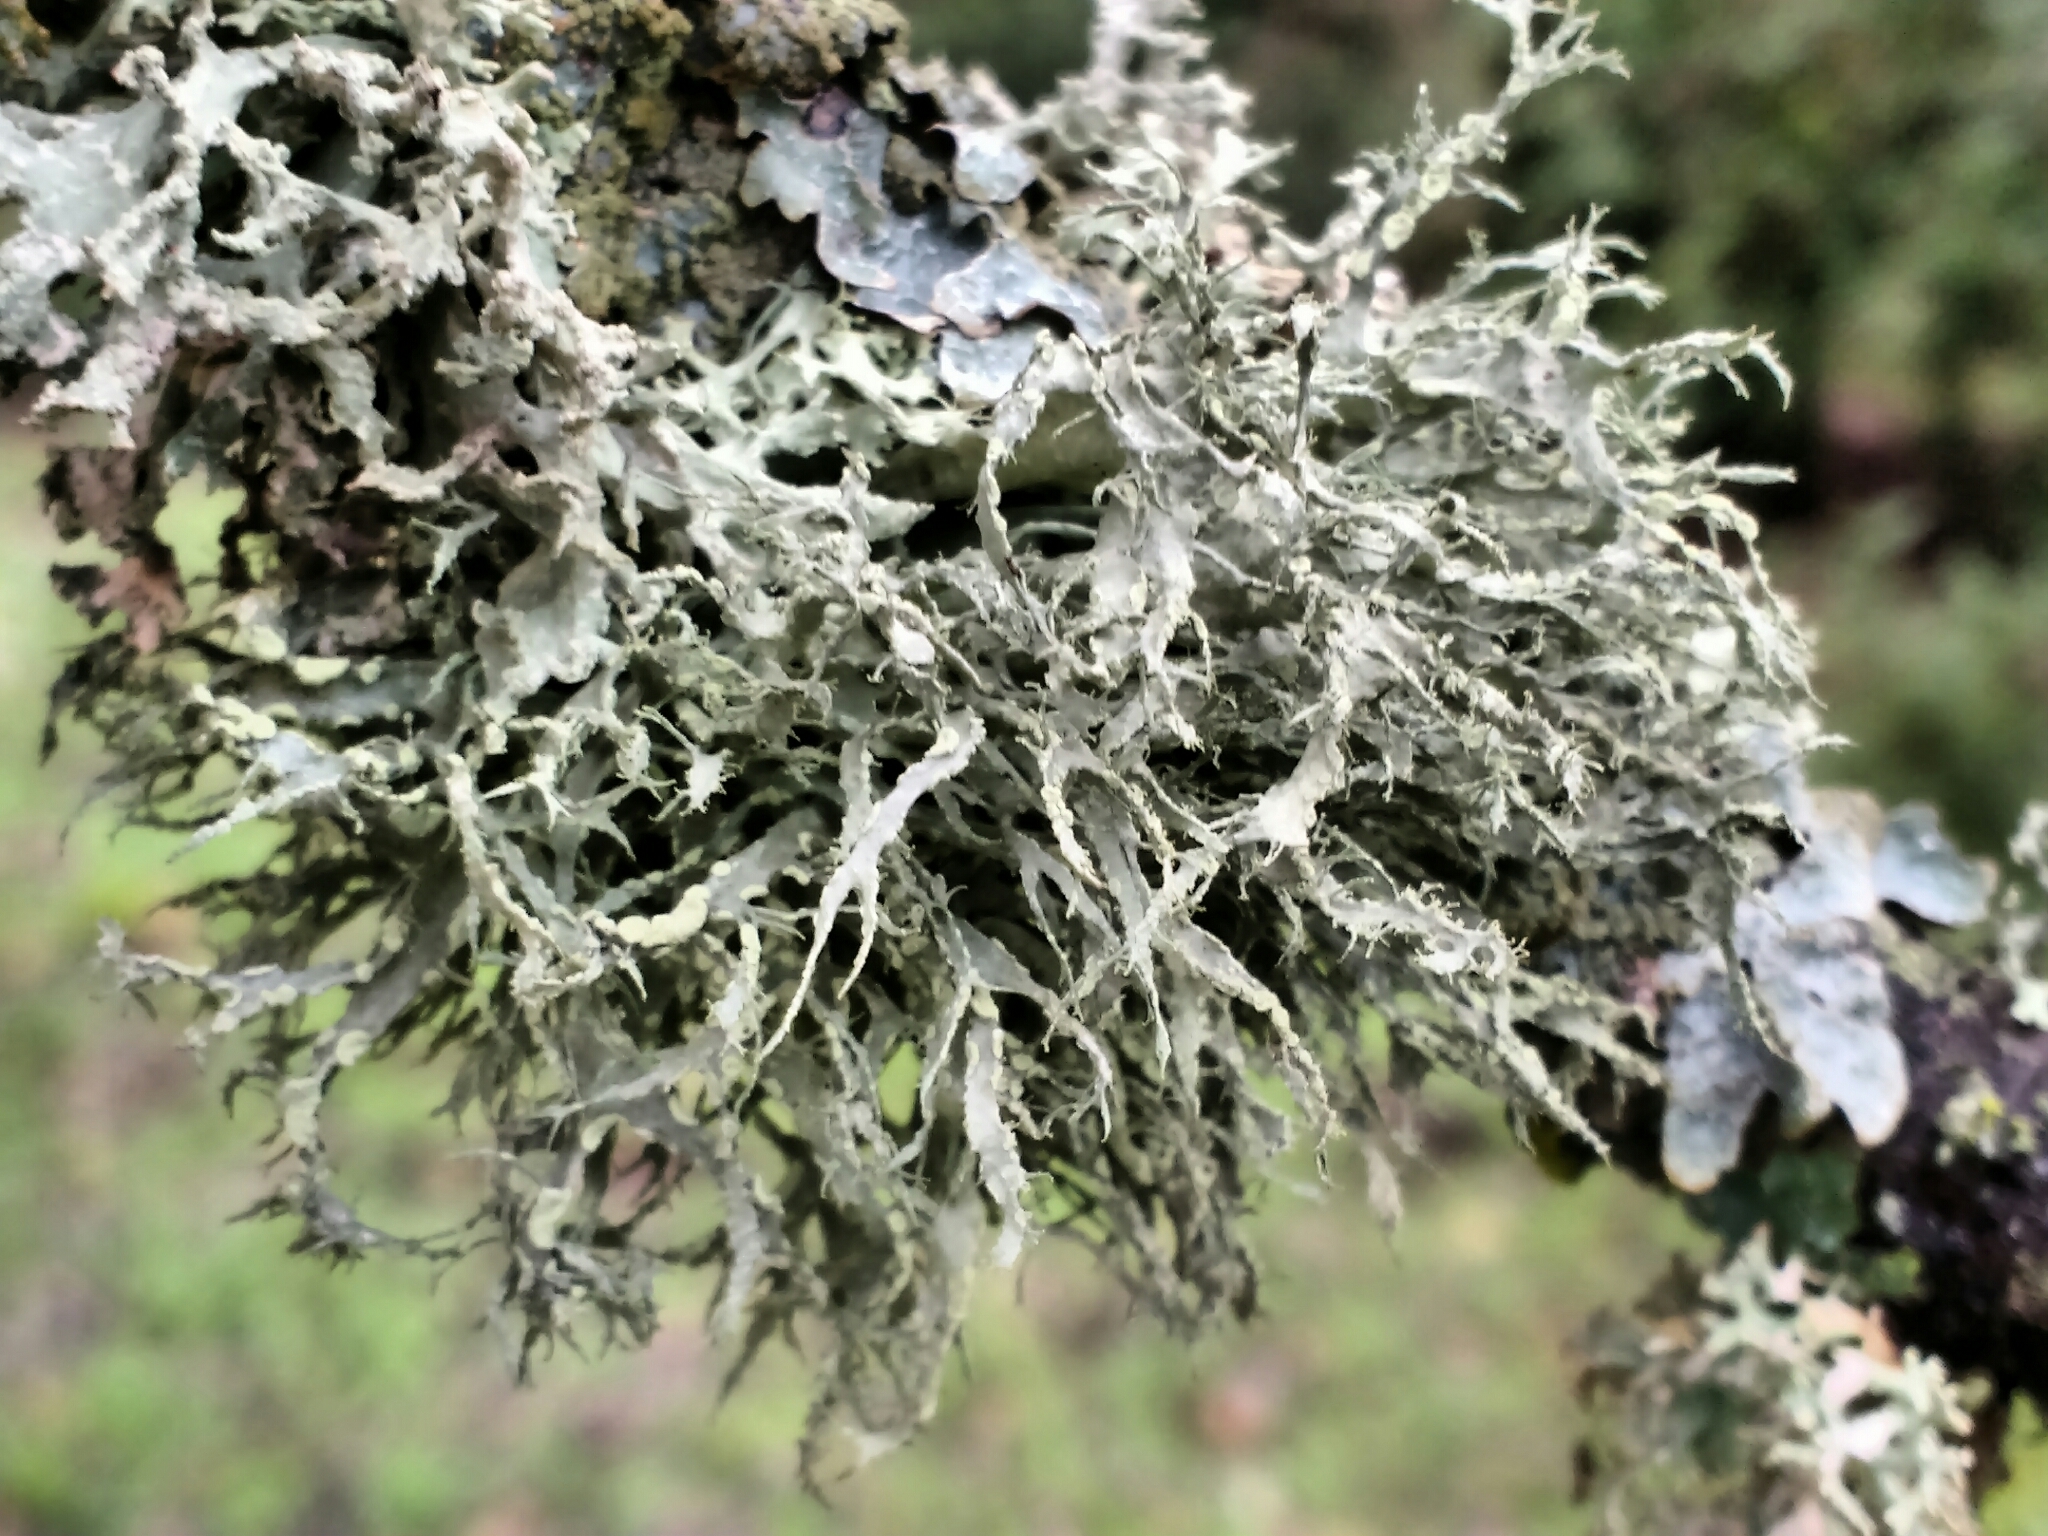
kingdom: Fungi
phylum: Ascomycota
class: Lecanoromycetes
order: Lecanorales
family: Ramalinaceae
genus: Ramalina
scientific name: Ramalina farinacea
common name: Farinose cartilage lichen
